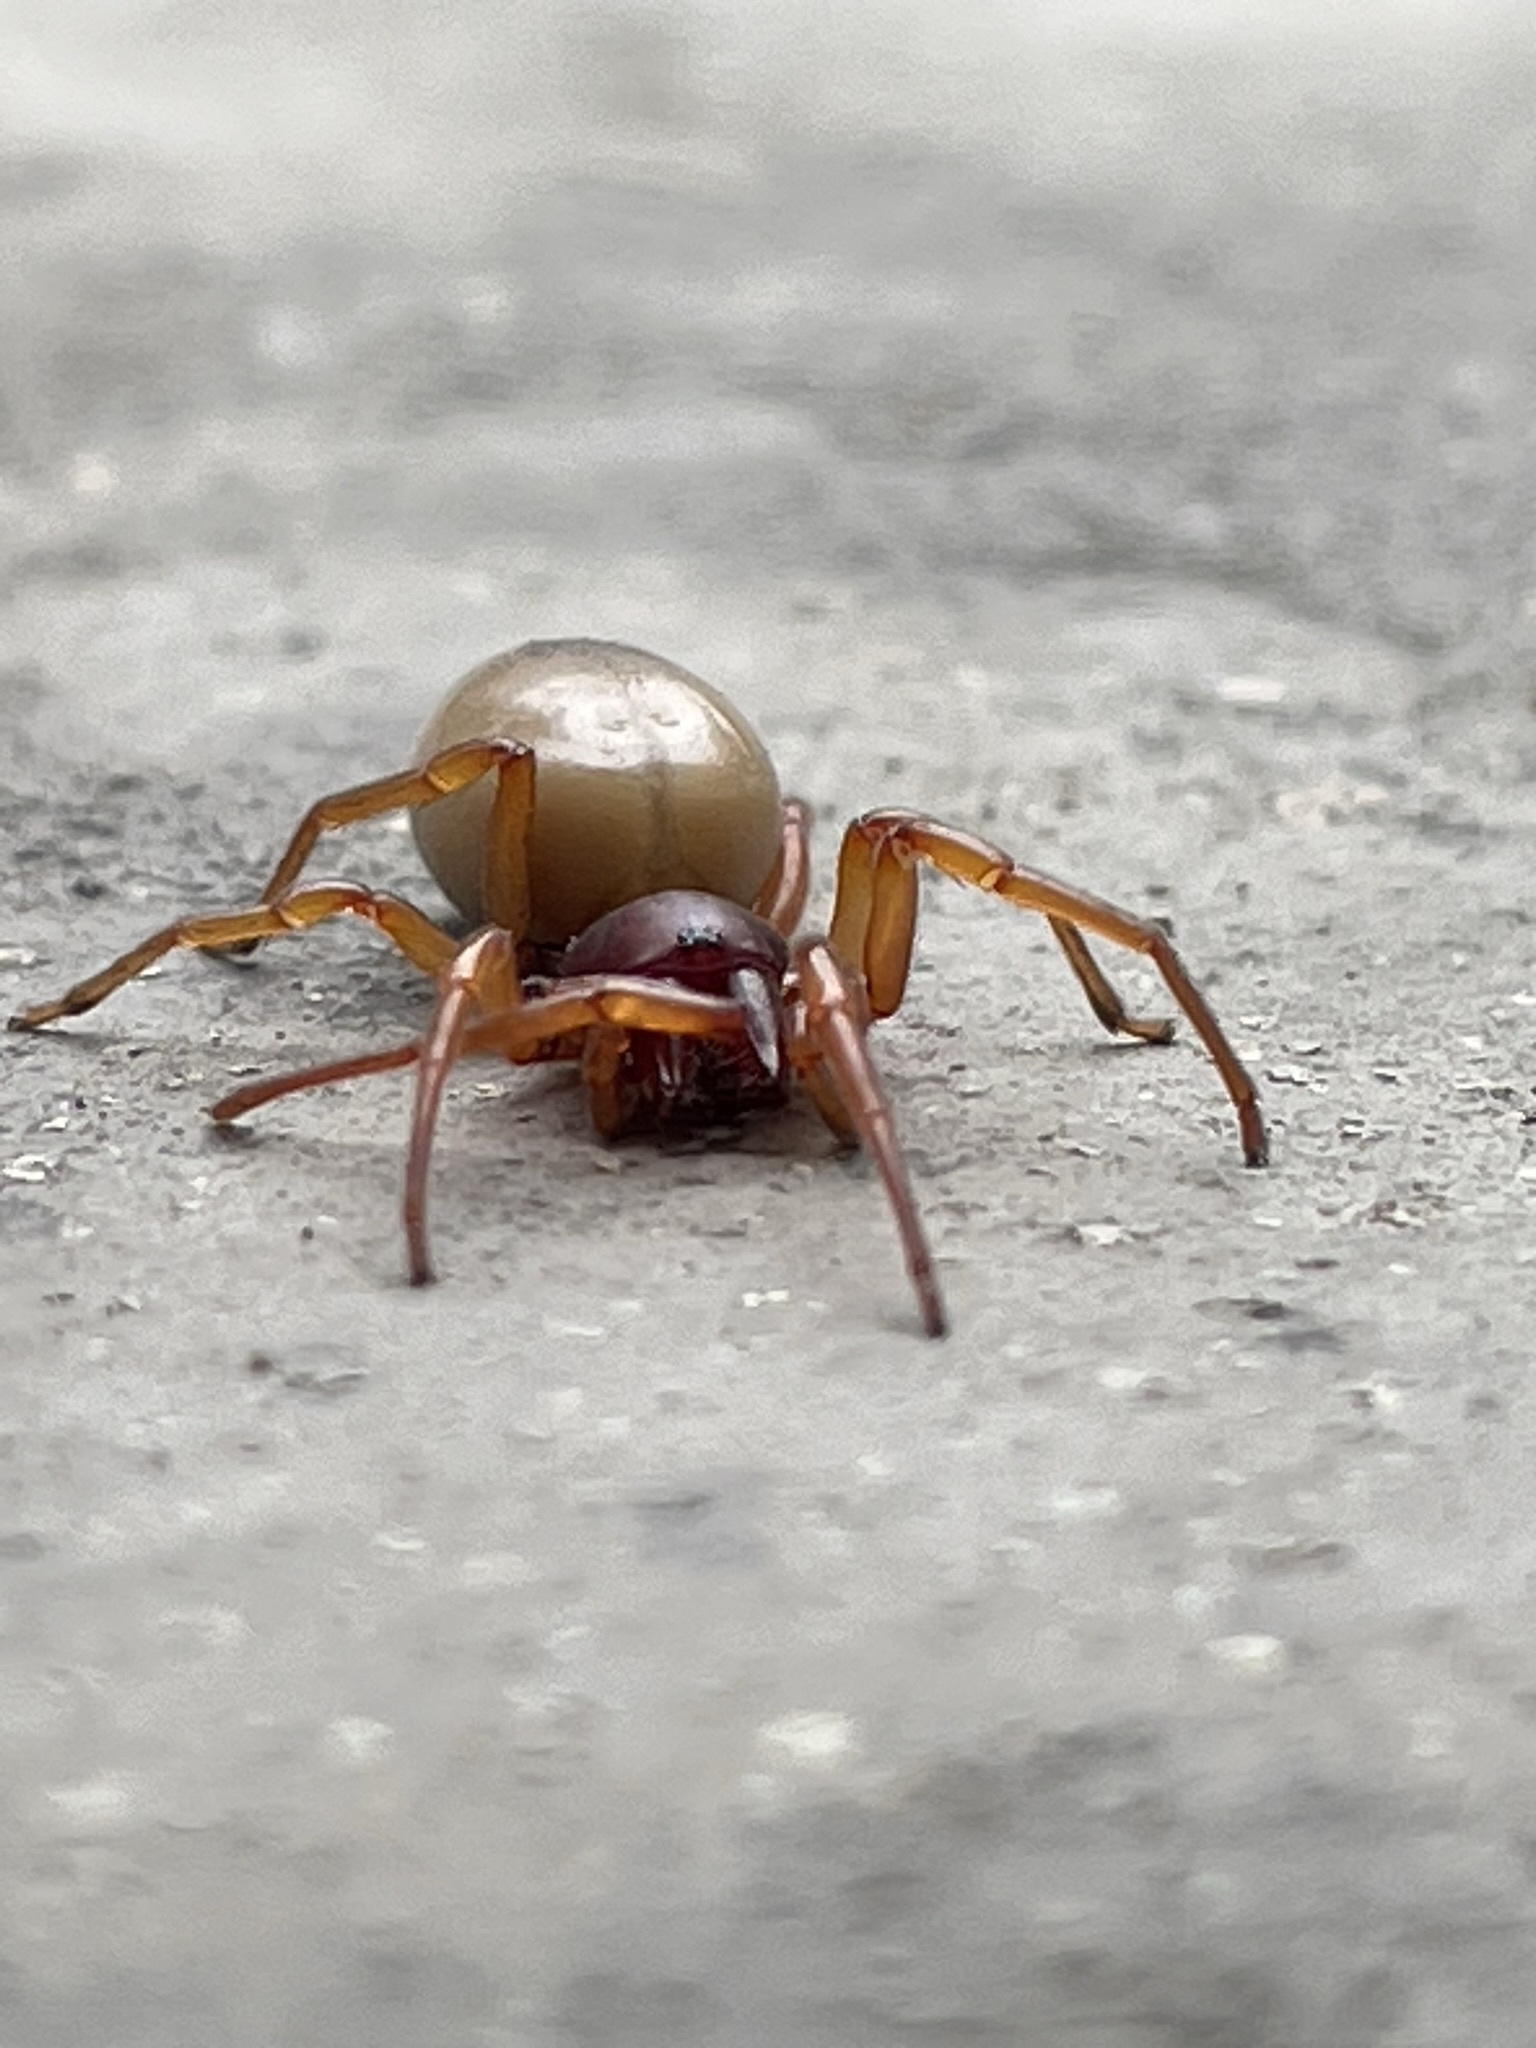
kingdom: Animalia
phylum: Arthropoda
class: Arachnida
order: Araneae
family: Dysderidae
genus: Dysdera
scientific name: Dysdera crocata
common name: Woodlouse spider
